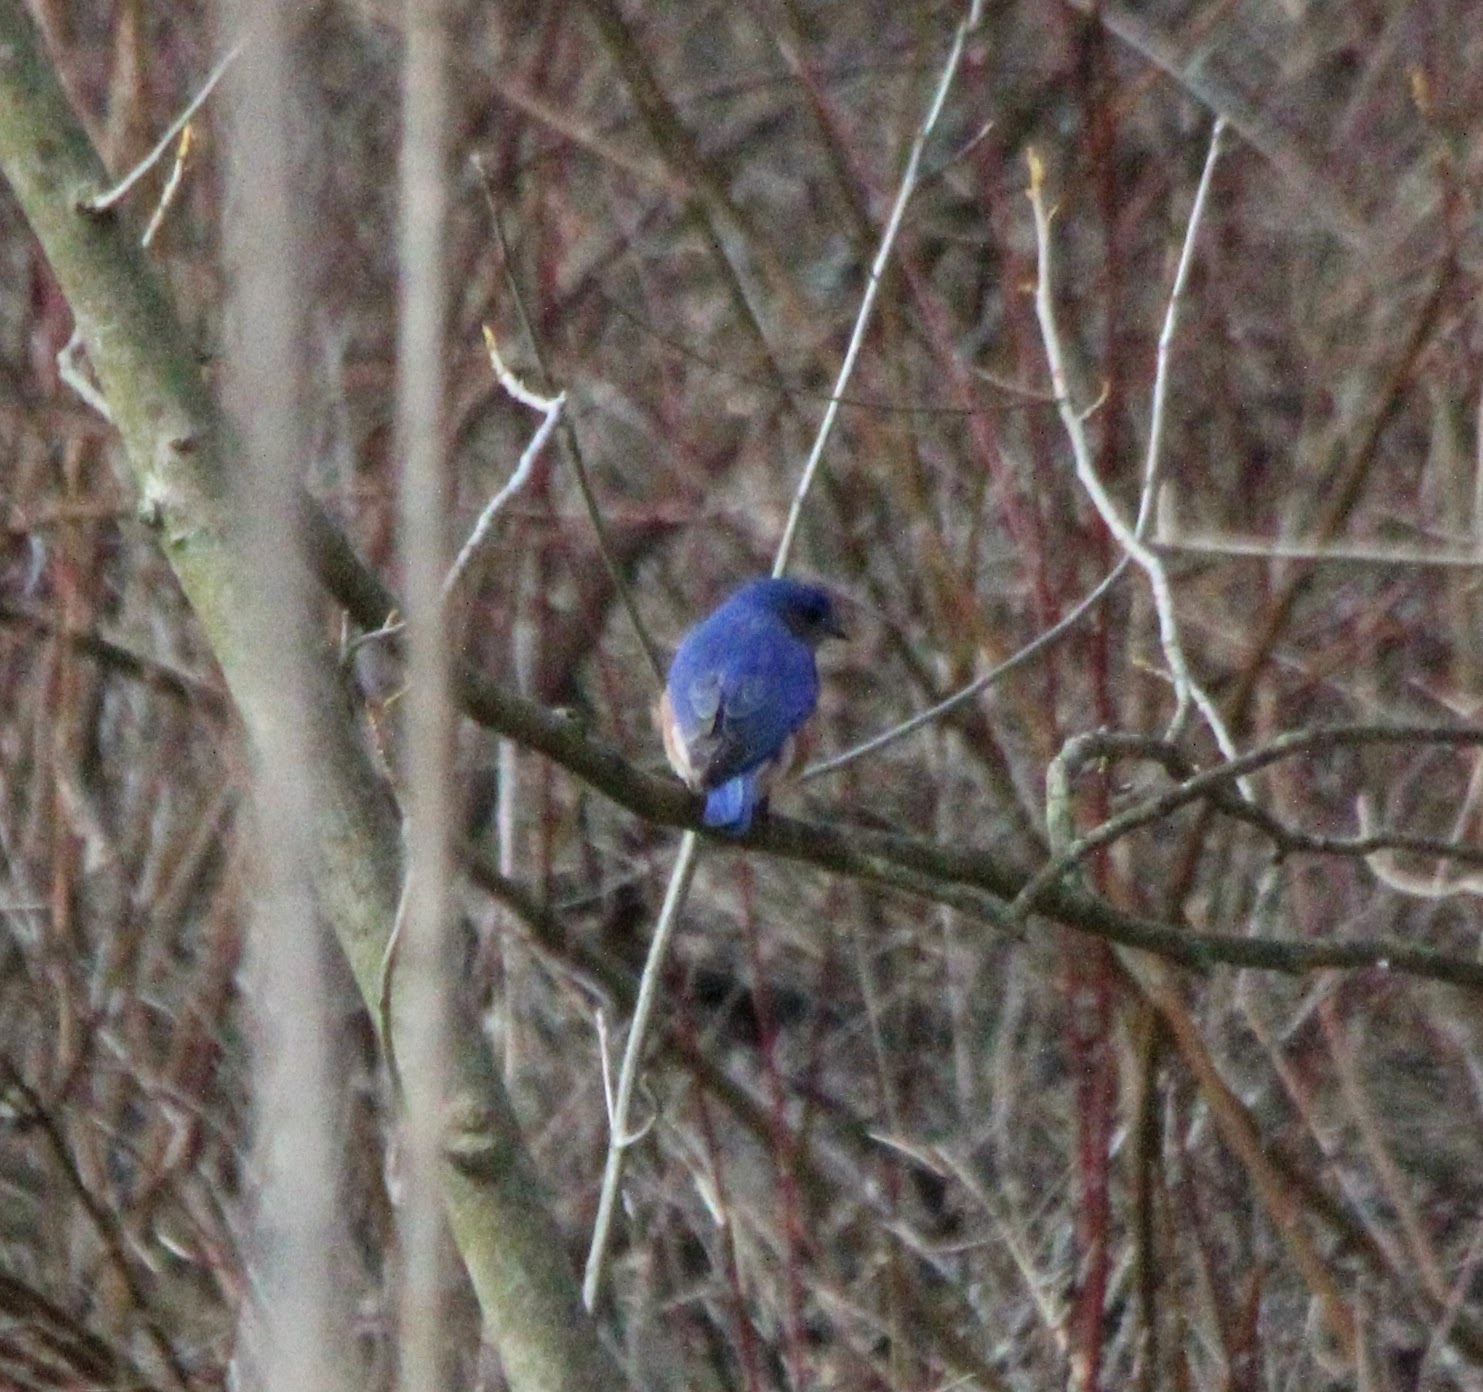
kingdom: Animalia
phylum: Chordata
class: Aves
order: Passeriformes
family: Turdidae
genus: Sialia
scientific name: Sialia sialis
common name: Eastern bluebird
